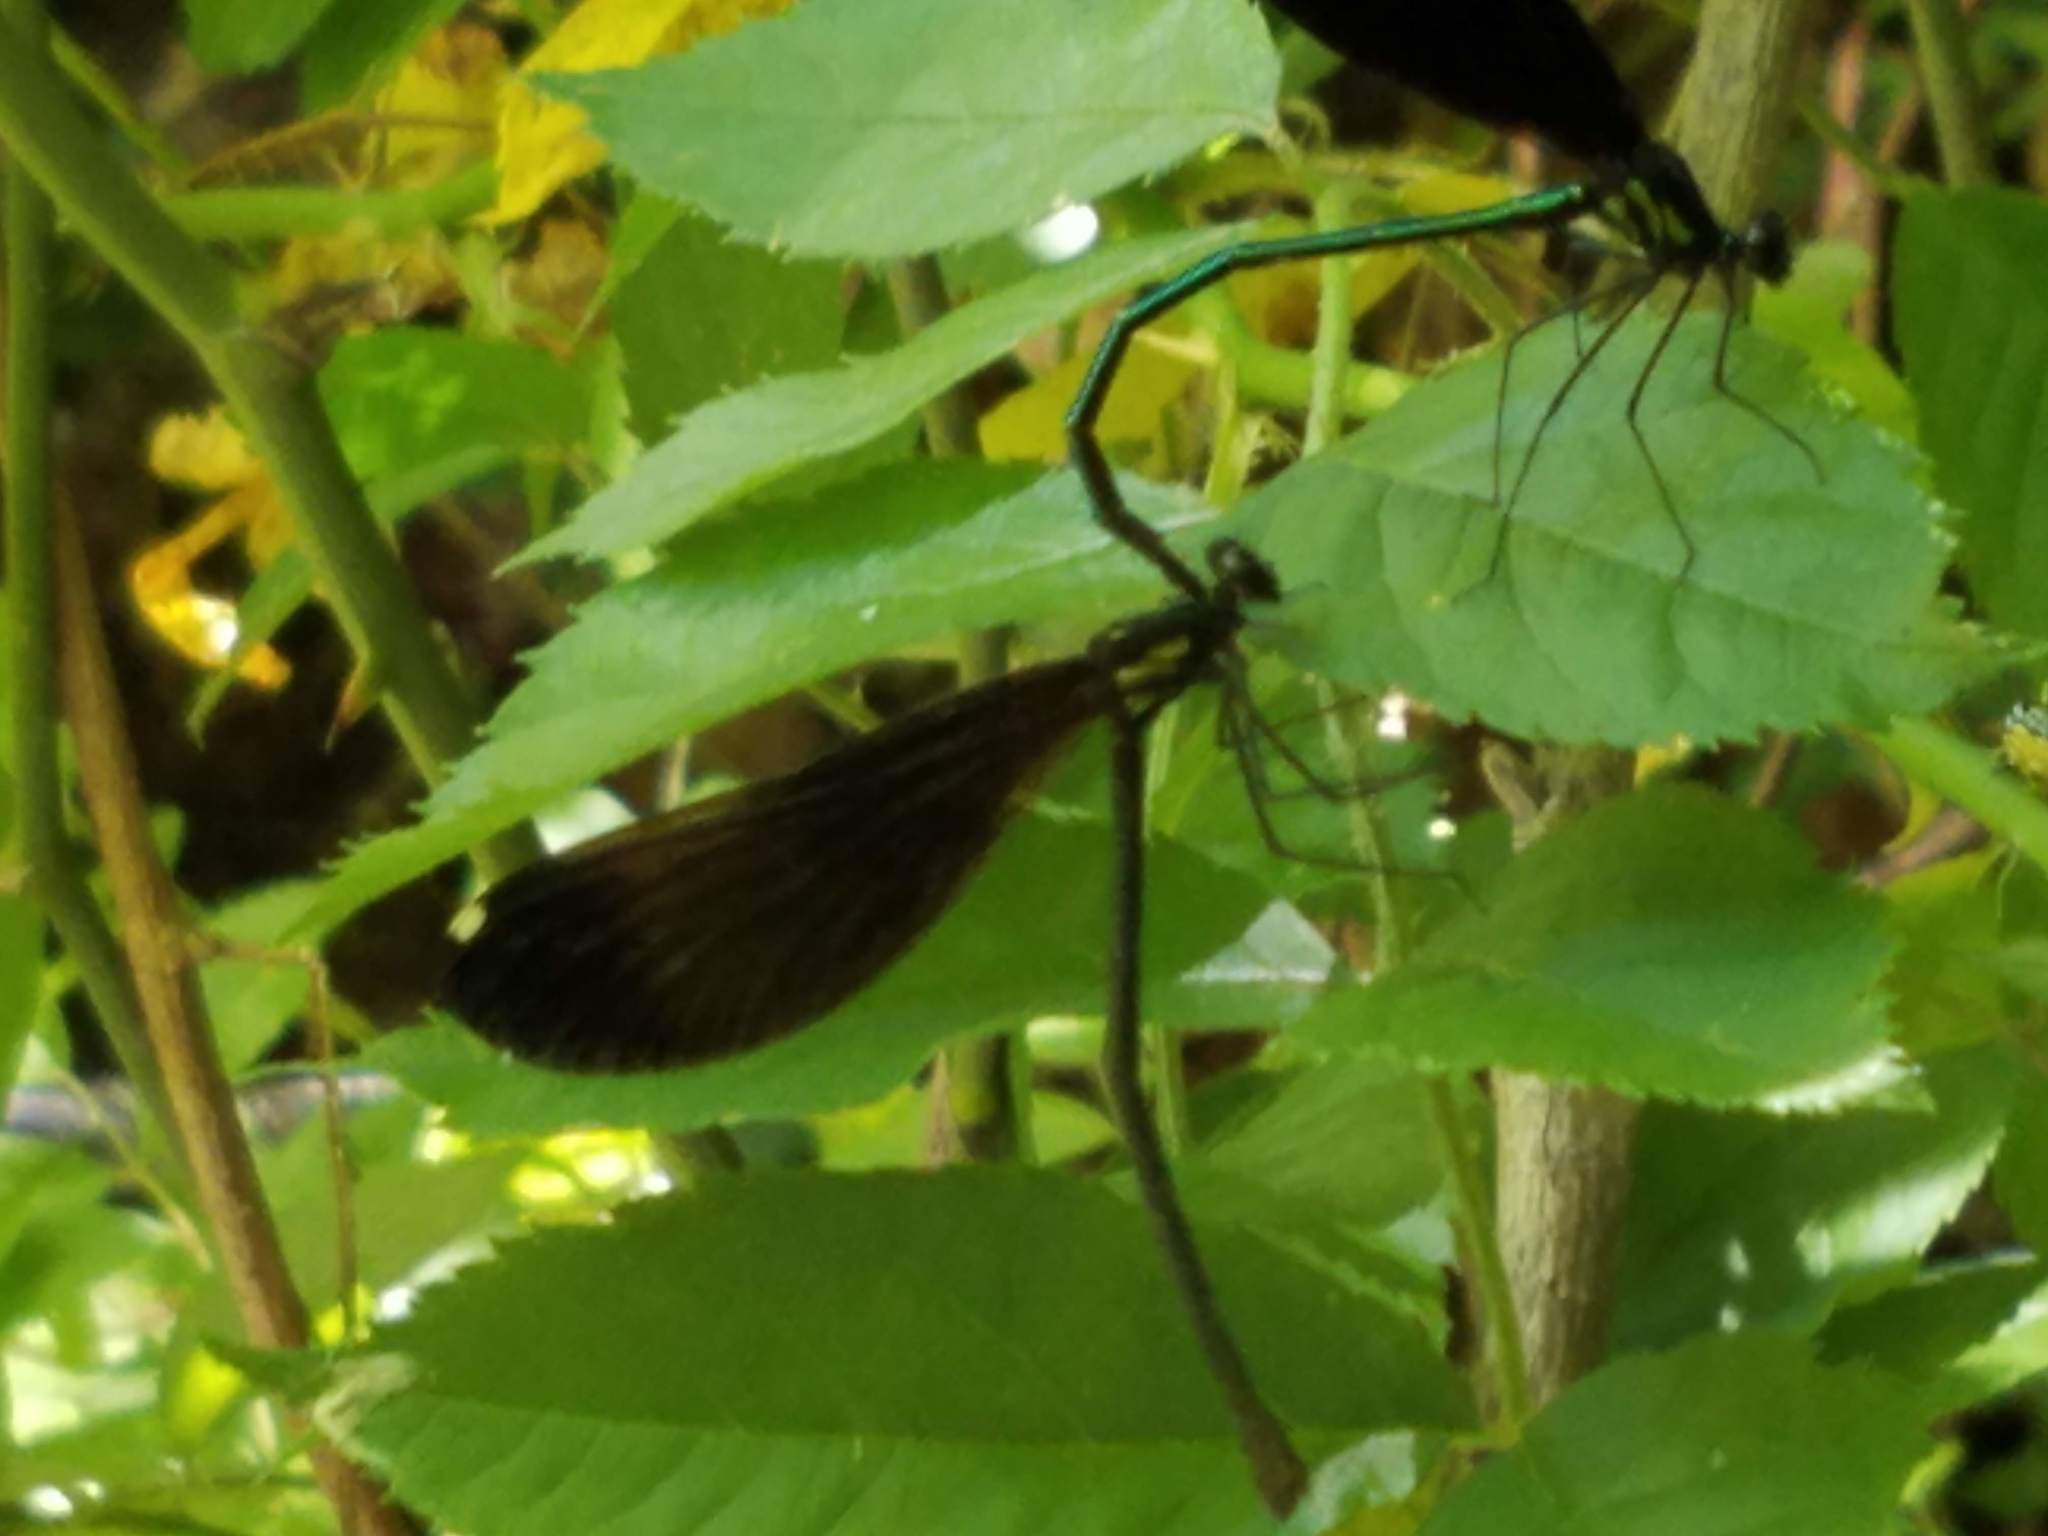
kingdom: Animalia
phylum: Arthropoda
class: Insecta
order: Odonata
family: Calopterygidae
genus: Calopteryx
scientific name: Calopteryx maculata
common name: Ebony jewelwing
